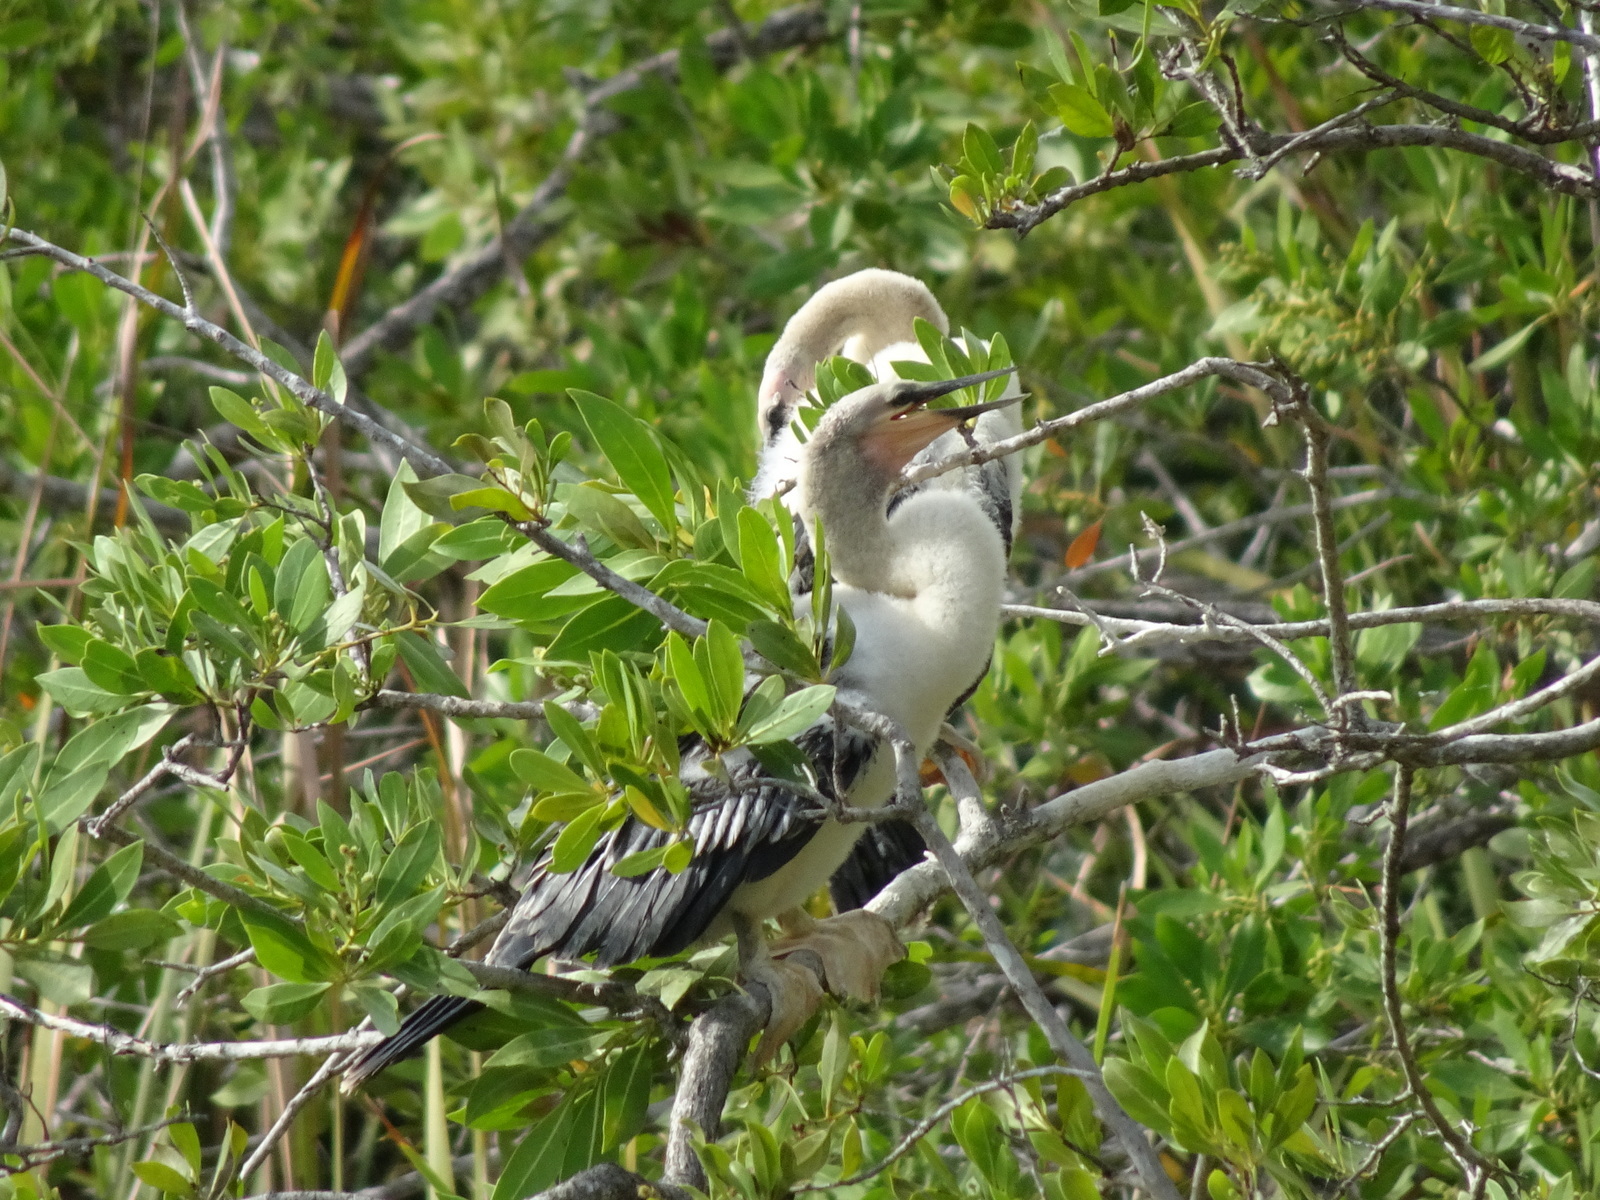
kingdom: Animalia
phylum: Chordata
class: Aves
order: Suliformes
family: Anhingidae
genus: Anhinga
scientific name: Anhinga anhinga
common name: Anhinga
